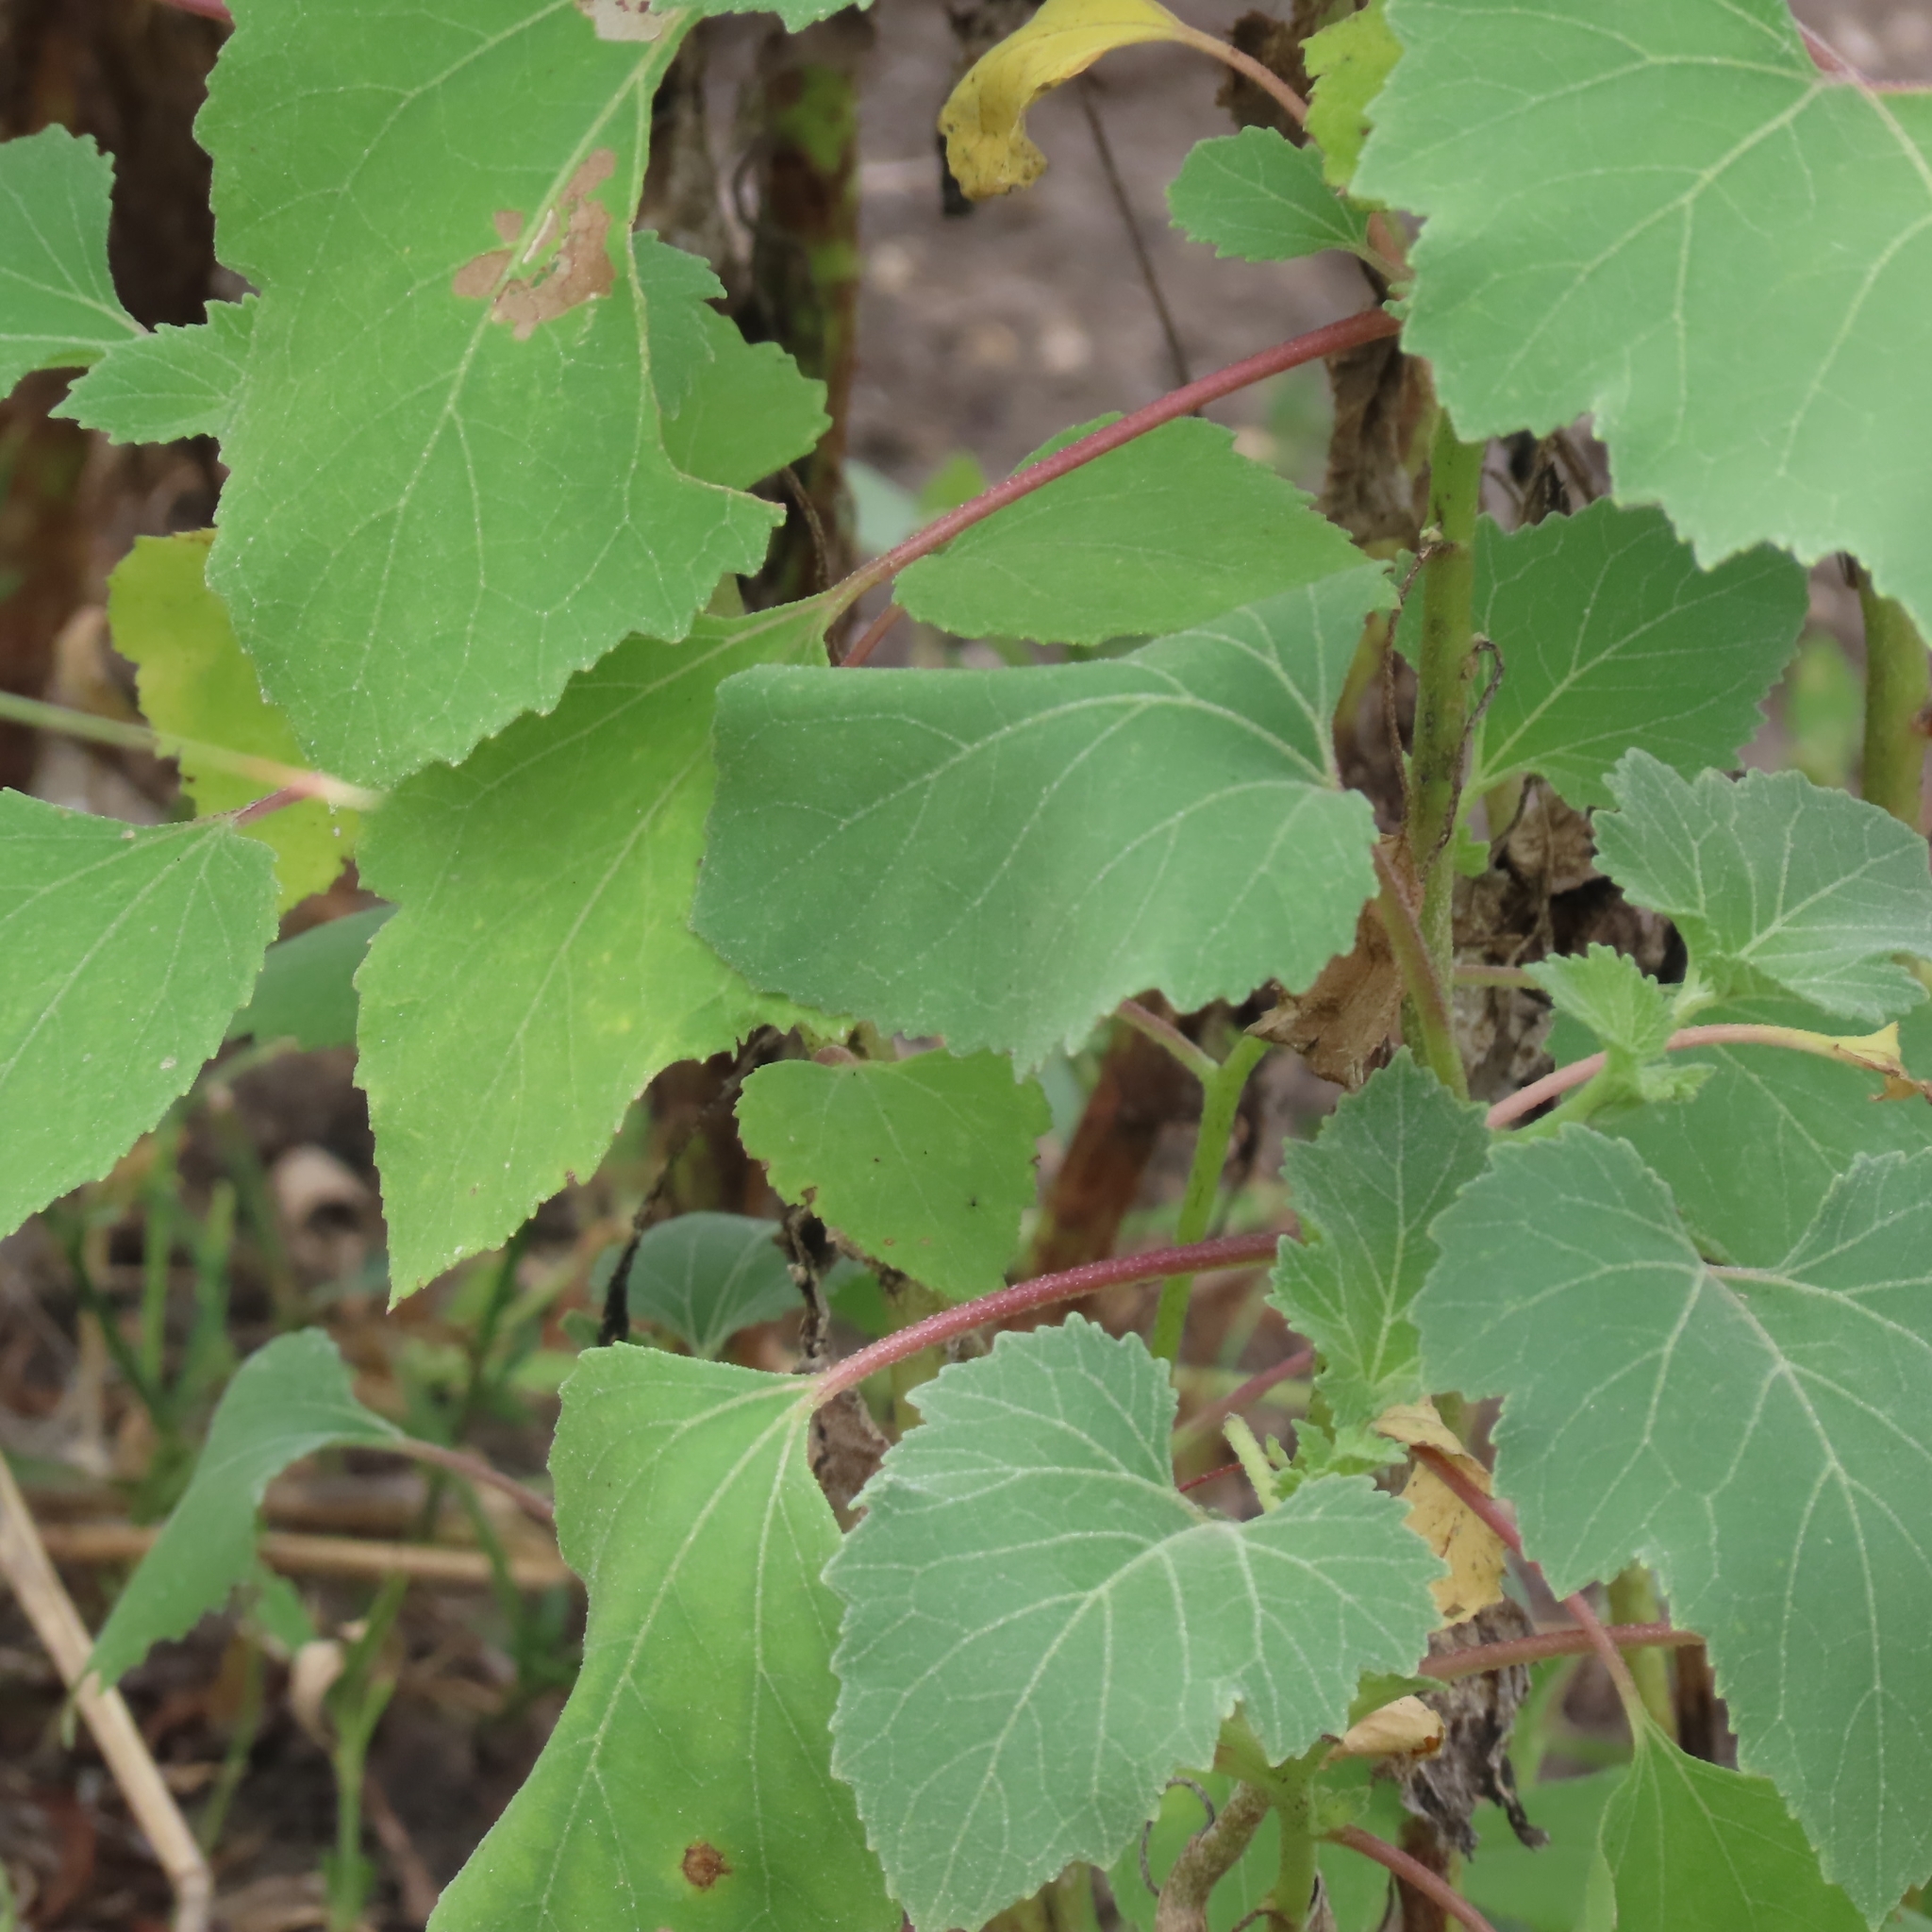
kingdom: Plantae
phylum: Tracheophyta
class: Magnoliopsida
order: Asterales
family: Asteraceae
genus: Xanthium
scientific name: Xanthium strumarium
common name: Rough cocklebur
